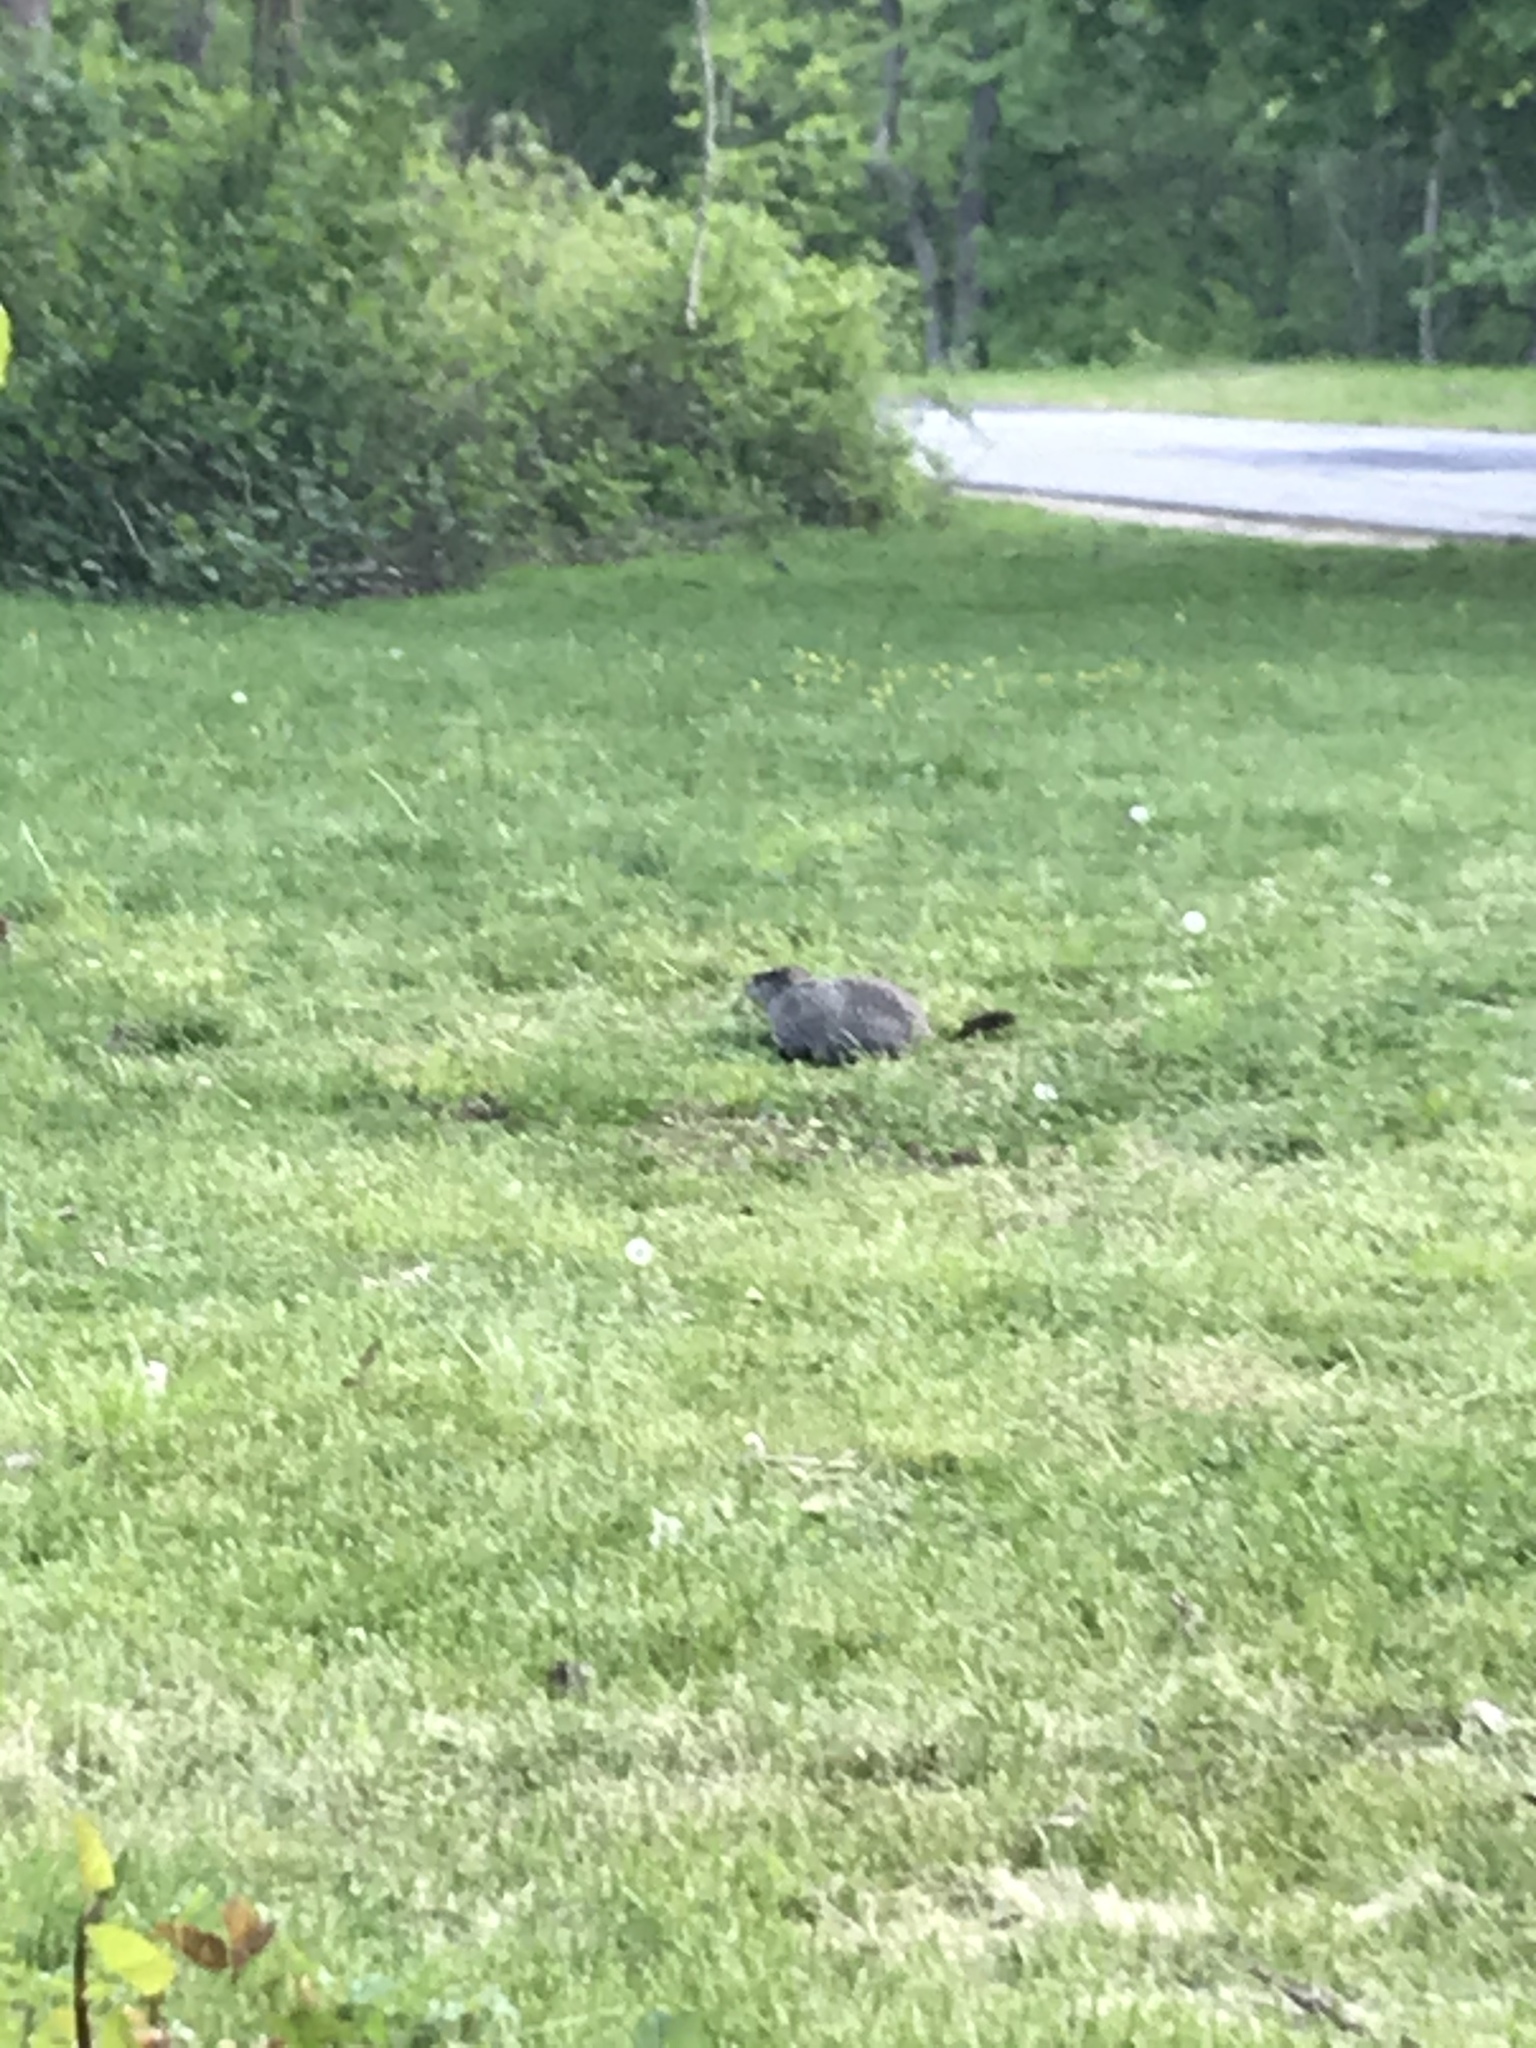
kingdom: Animalia
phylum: Chordata
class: Mammalia
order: Rodentia
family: Sciuridae
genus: Marmota
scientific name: Marmota monax
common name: Groundhog
